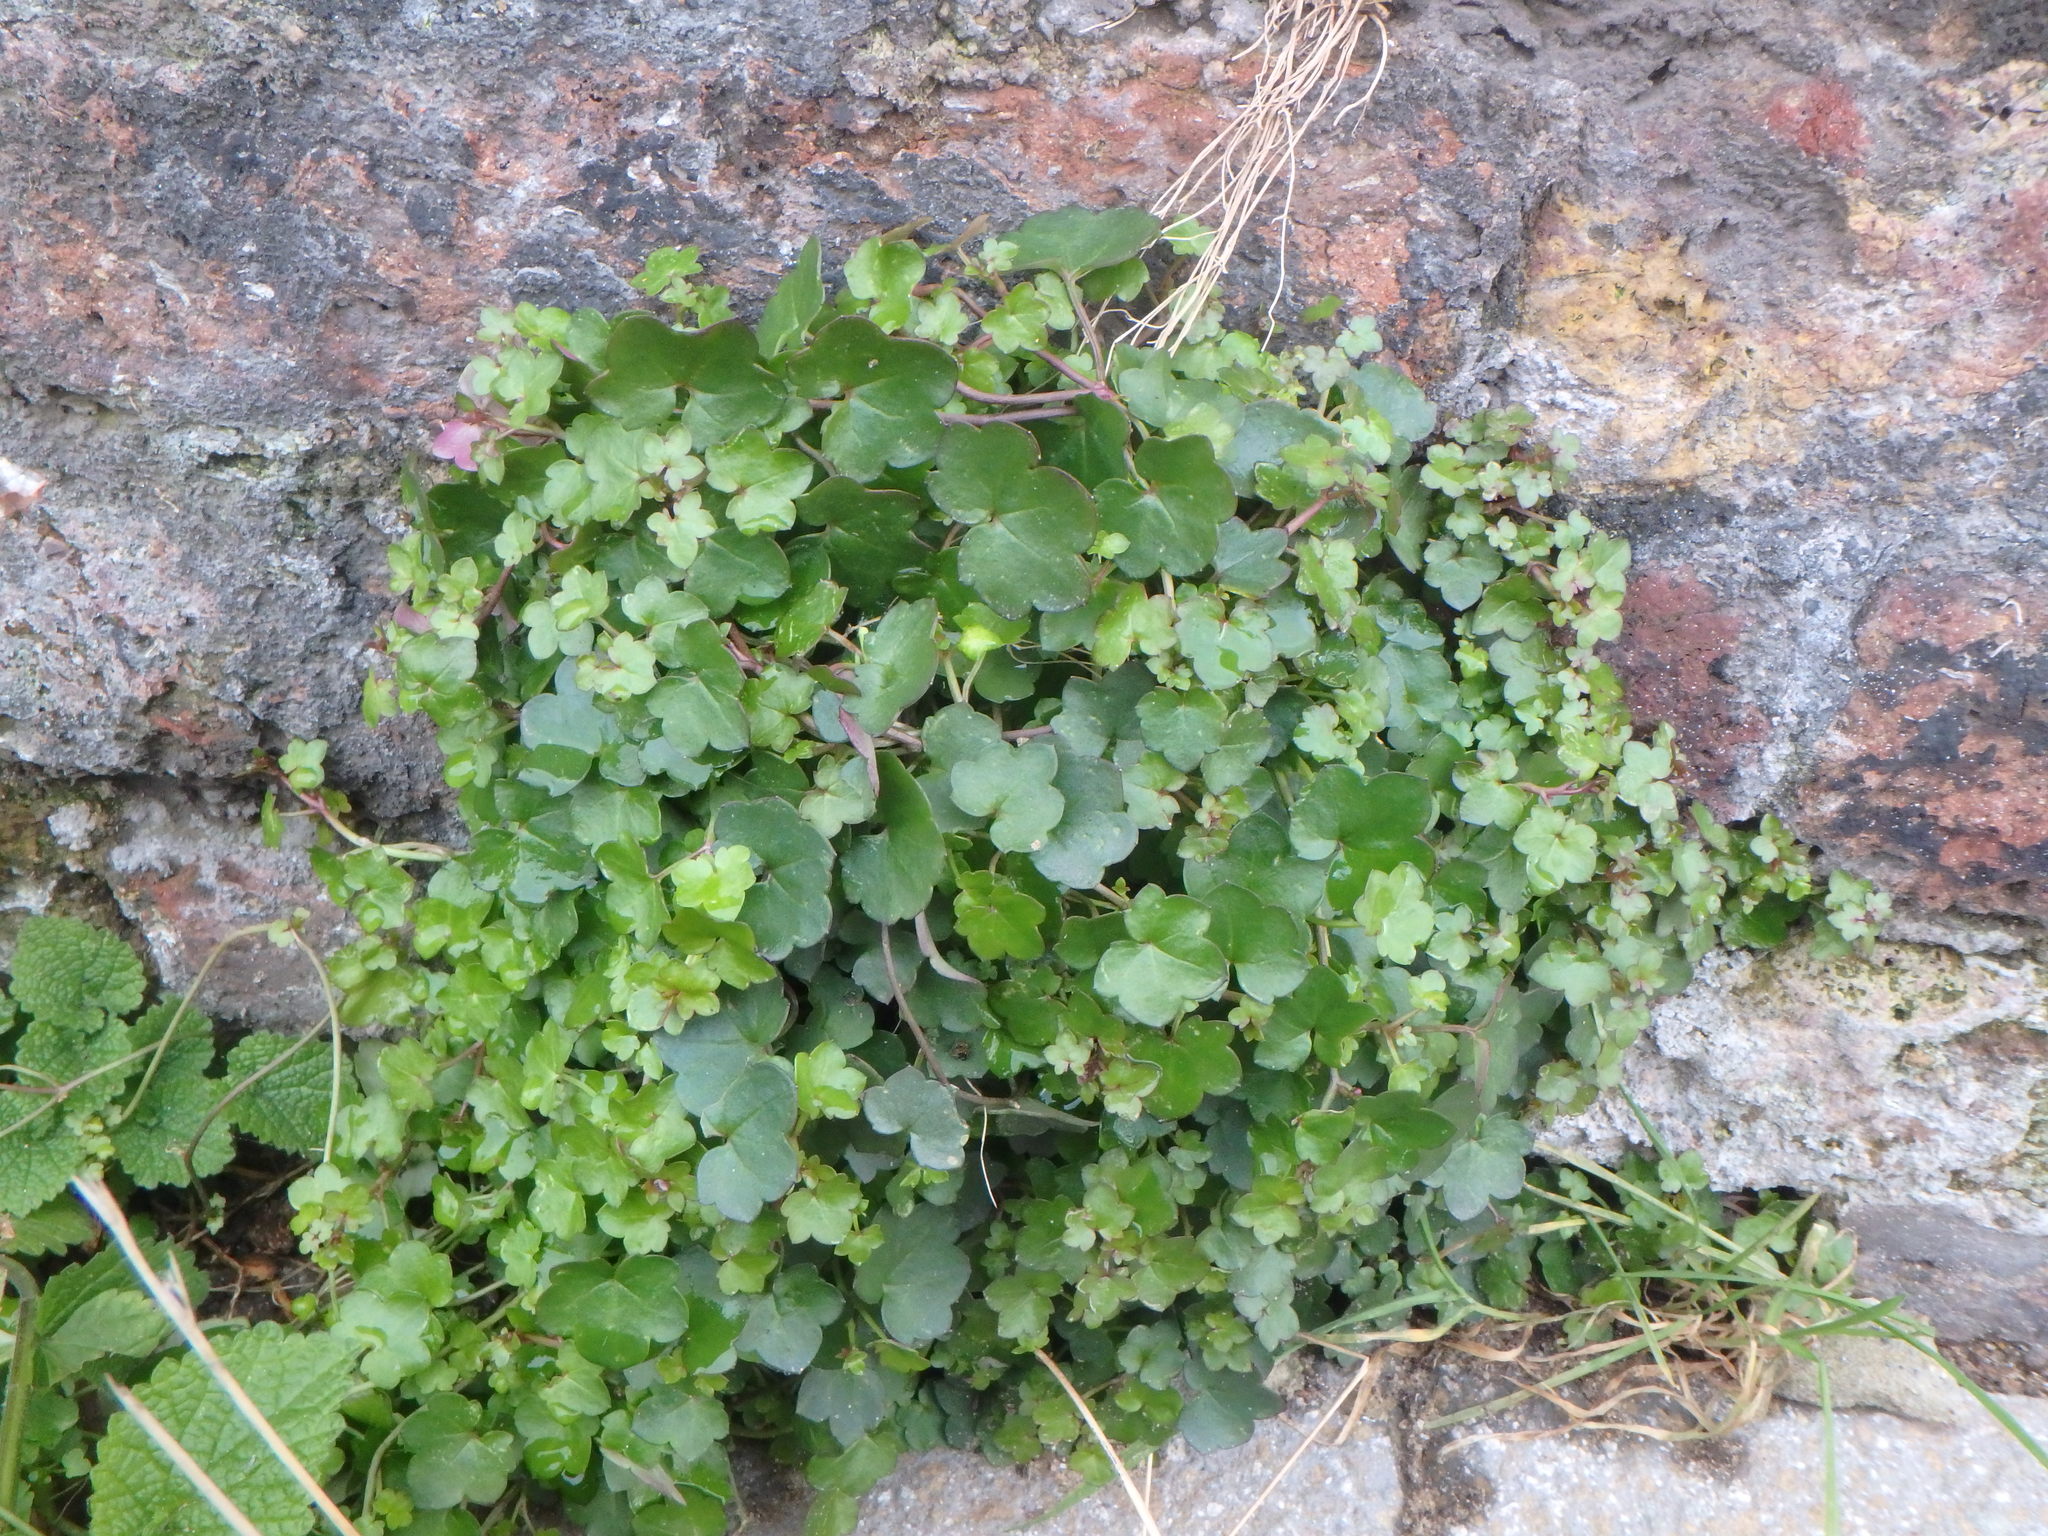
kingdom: Plantae
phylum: Tracheophyta
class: Magnoliopsida
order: Lamiales
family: Plantaginaceae
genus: Cymbalaria
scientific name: Cymbalaria muralis
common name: Ivy-leaved toadflax
